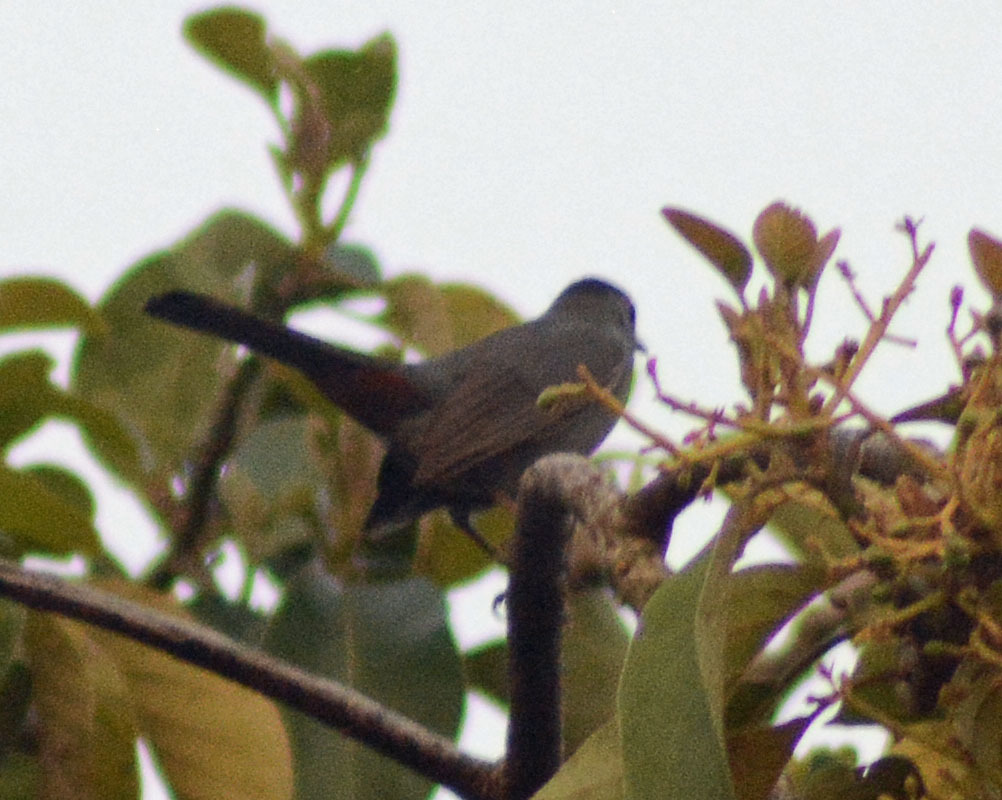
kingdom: Animalia
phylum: Chordata
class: Aves
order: Passeriformes
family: Mimidae
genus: Dumetella
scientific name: Dumetella carolinensis
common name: Gray catbird
